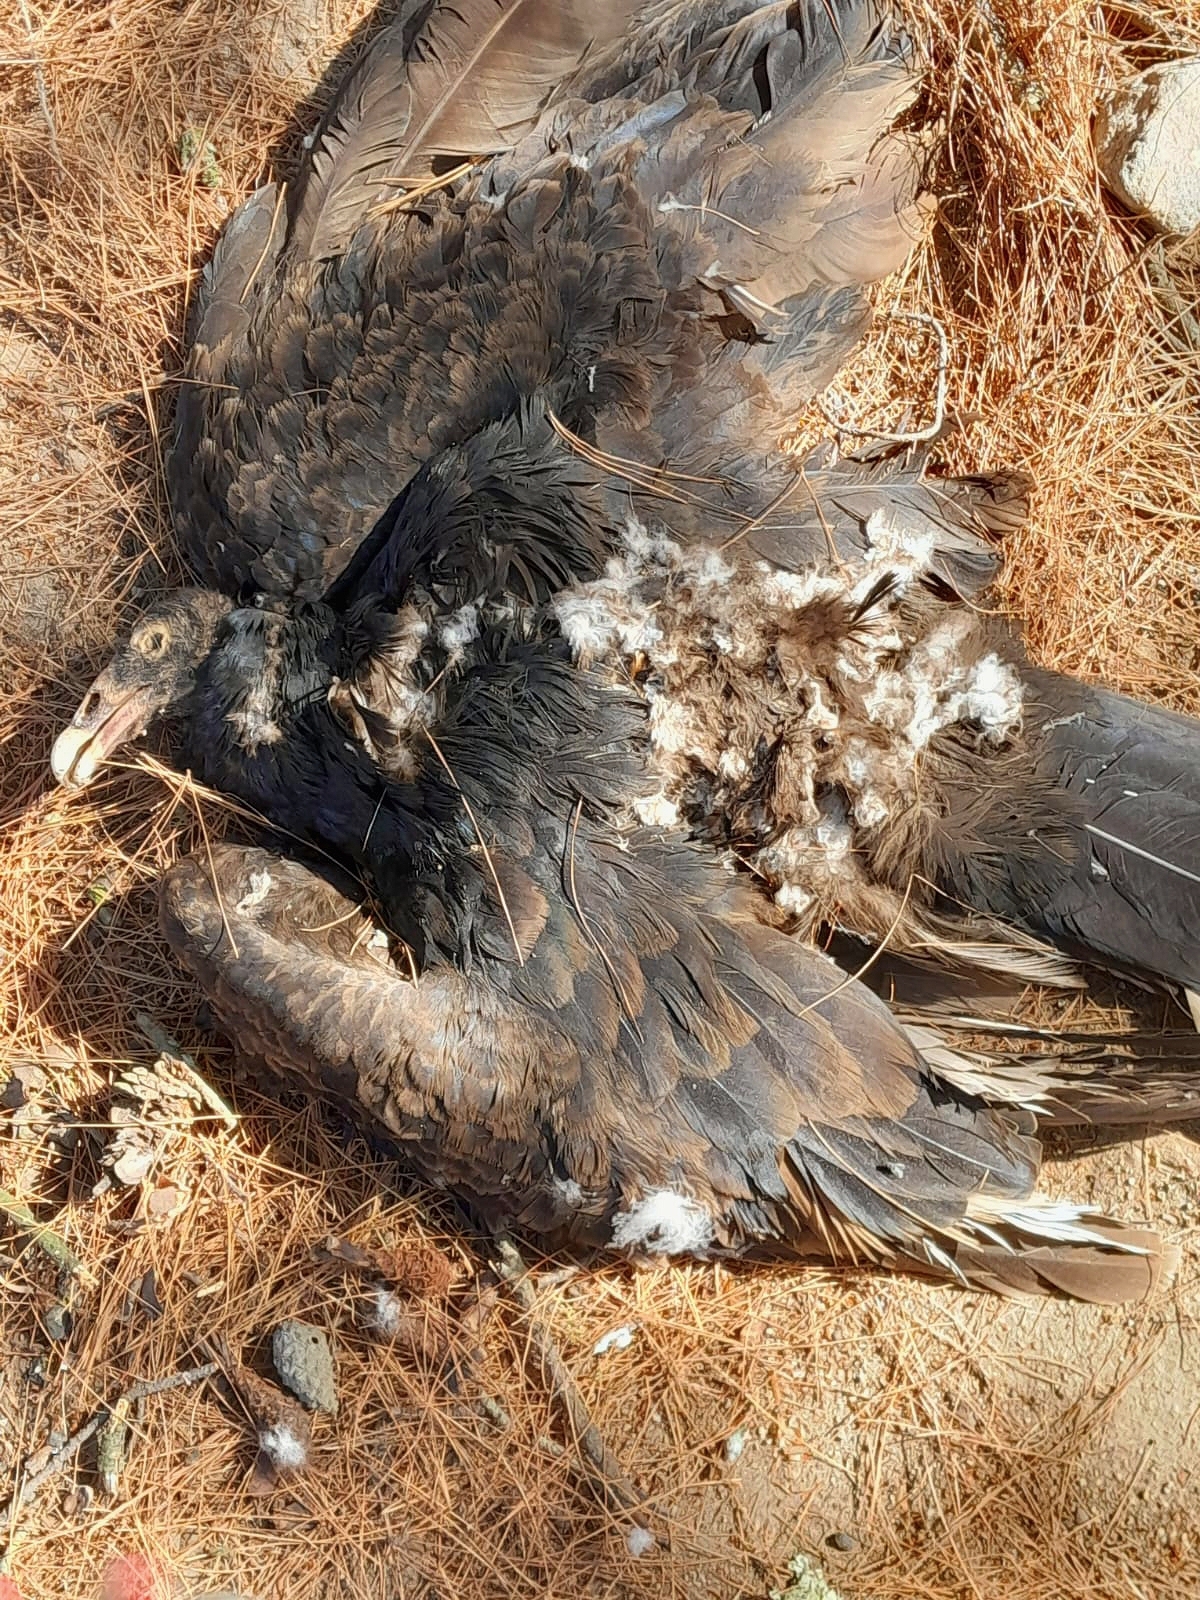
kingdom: Animalia
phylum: Chordata
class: Aves
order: Accipitriformes
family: Cathartidae
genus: Cathartes
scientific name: Cathartes aura
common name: Turkey vulture
